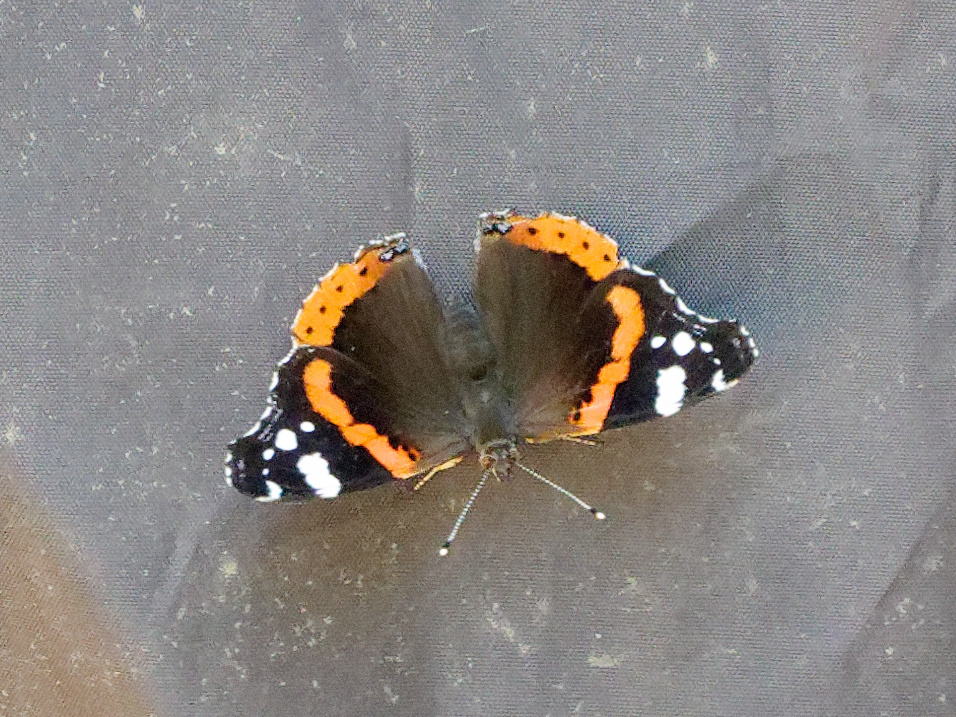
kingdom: Animalia
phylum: Arthropoda
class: Insecta
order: Lepidoptera
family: Nymphalidae
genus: Vanessa
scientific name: Vanessa atalanta
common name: Red admiral
